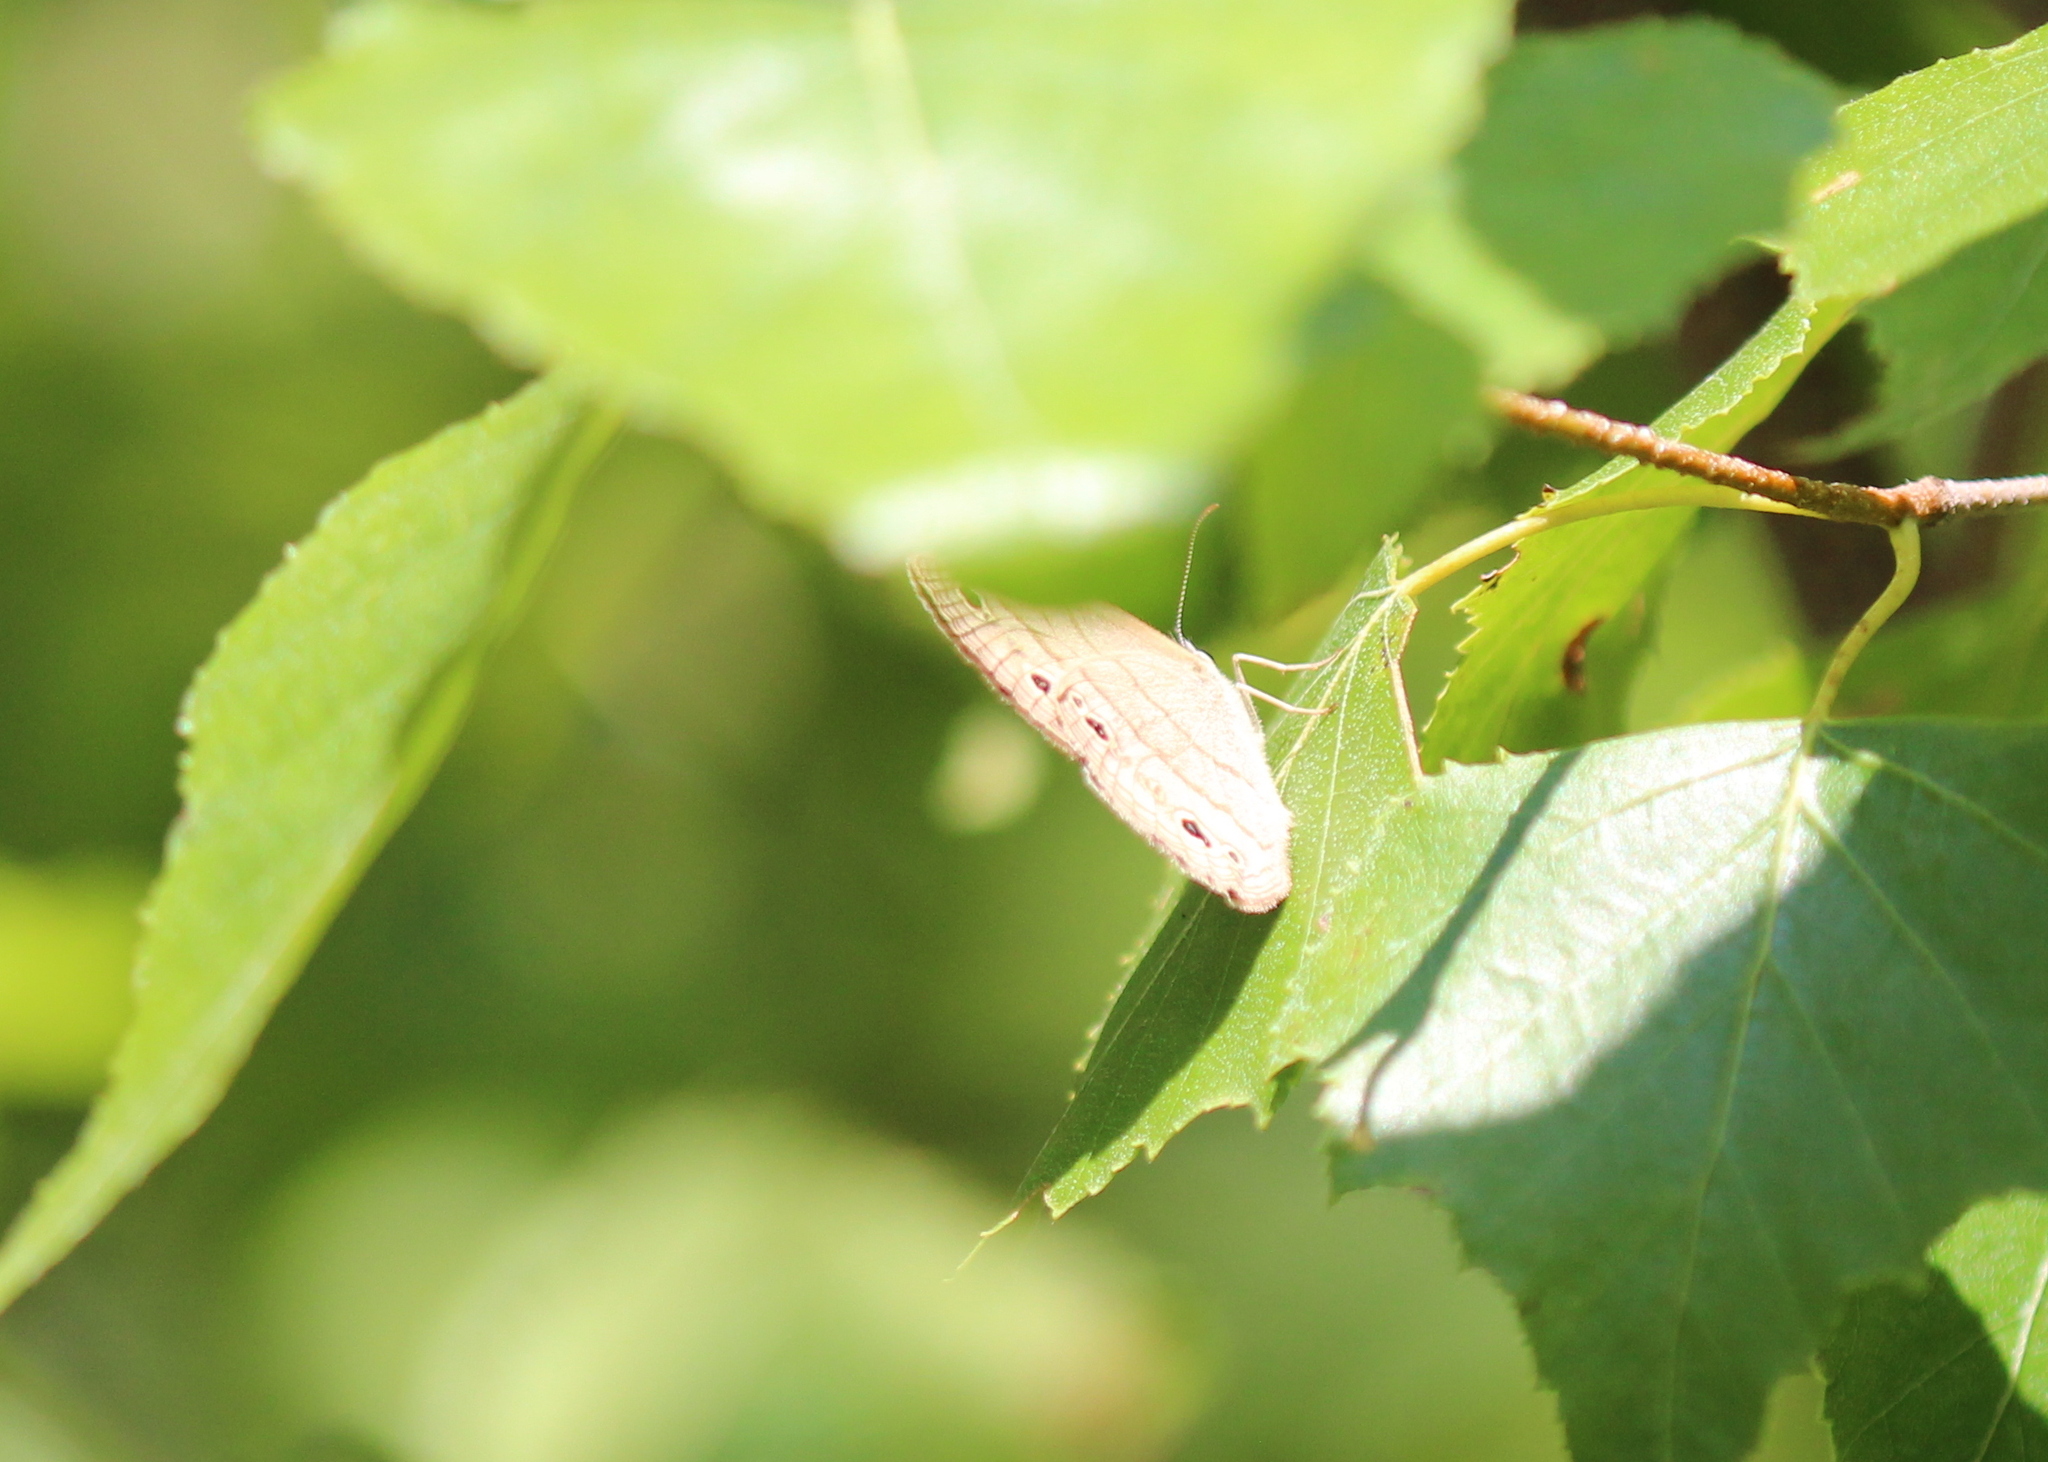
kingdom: Animalia
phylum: Arthropoda
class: Insecta
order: Lepidoptera
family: Nymphalidae
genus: Euptychia
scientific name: Euptychia cymela
